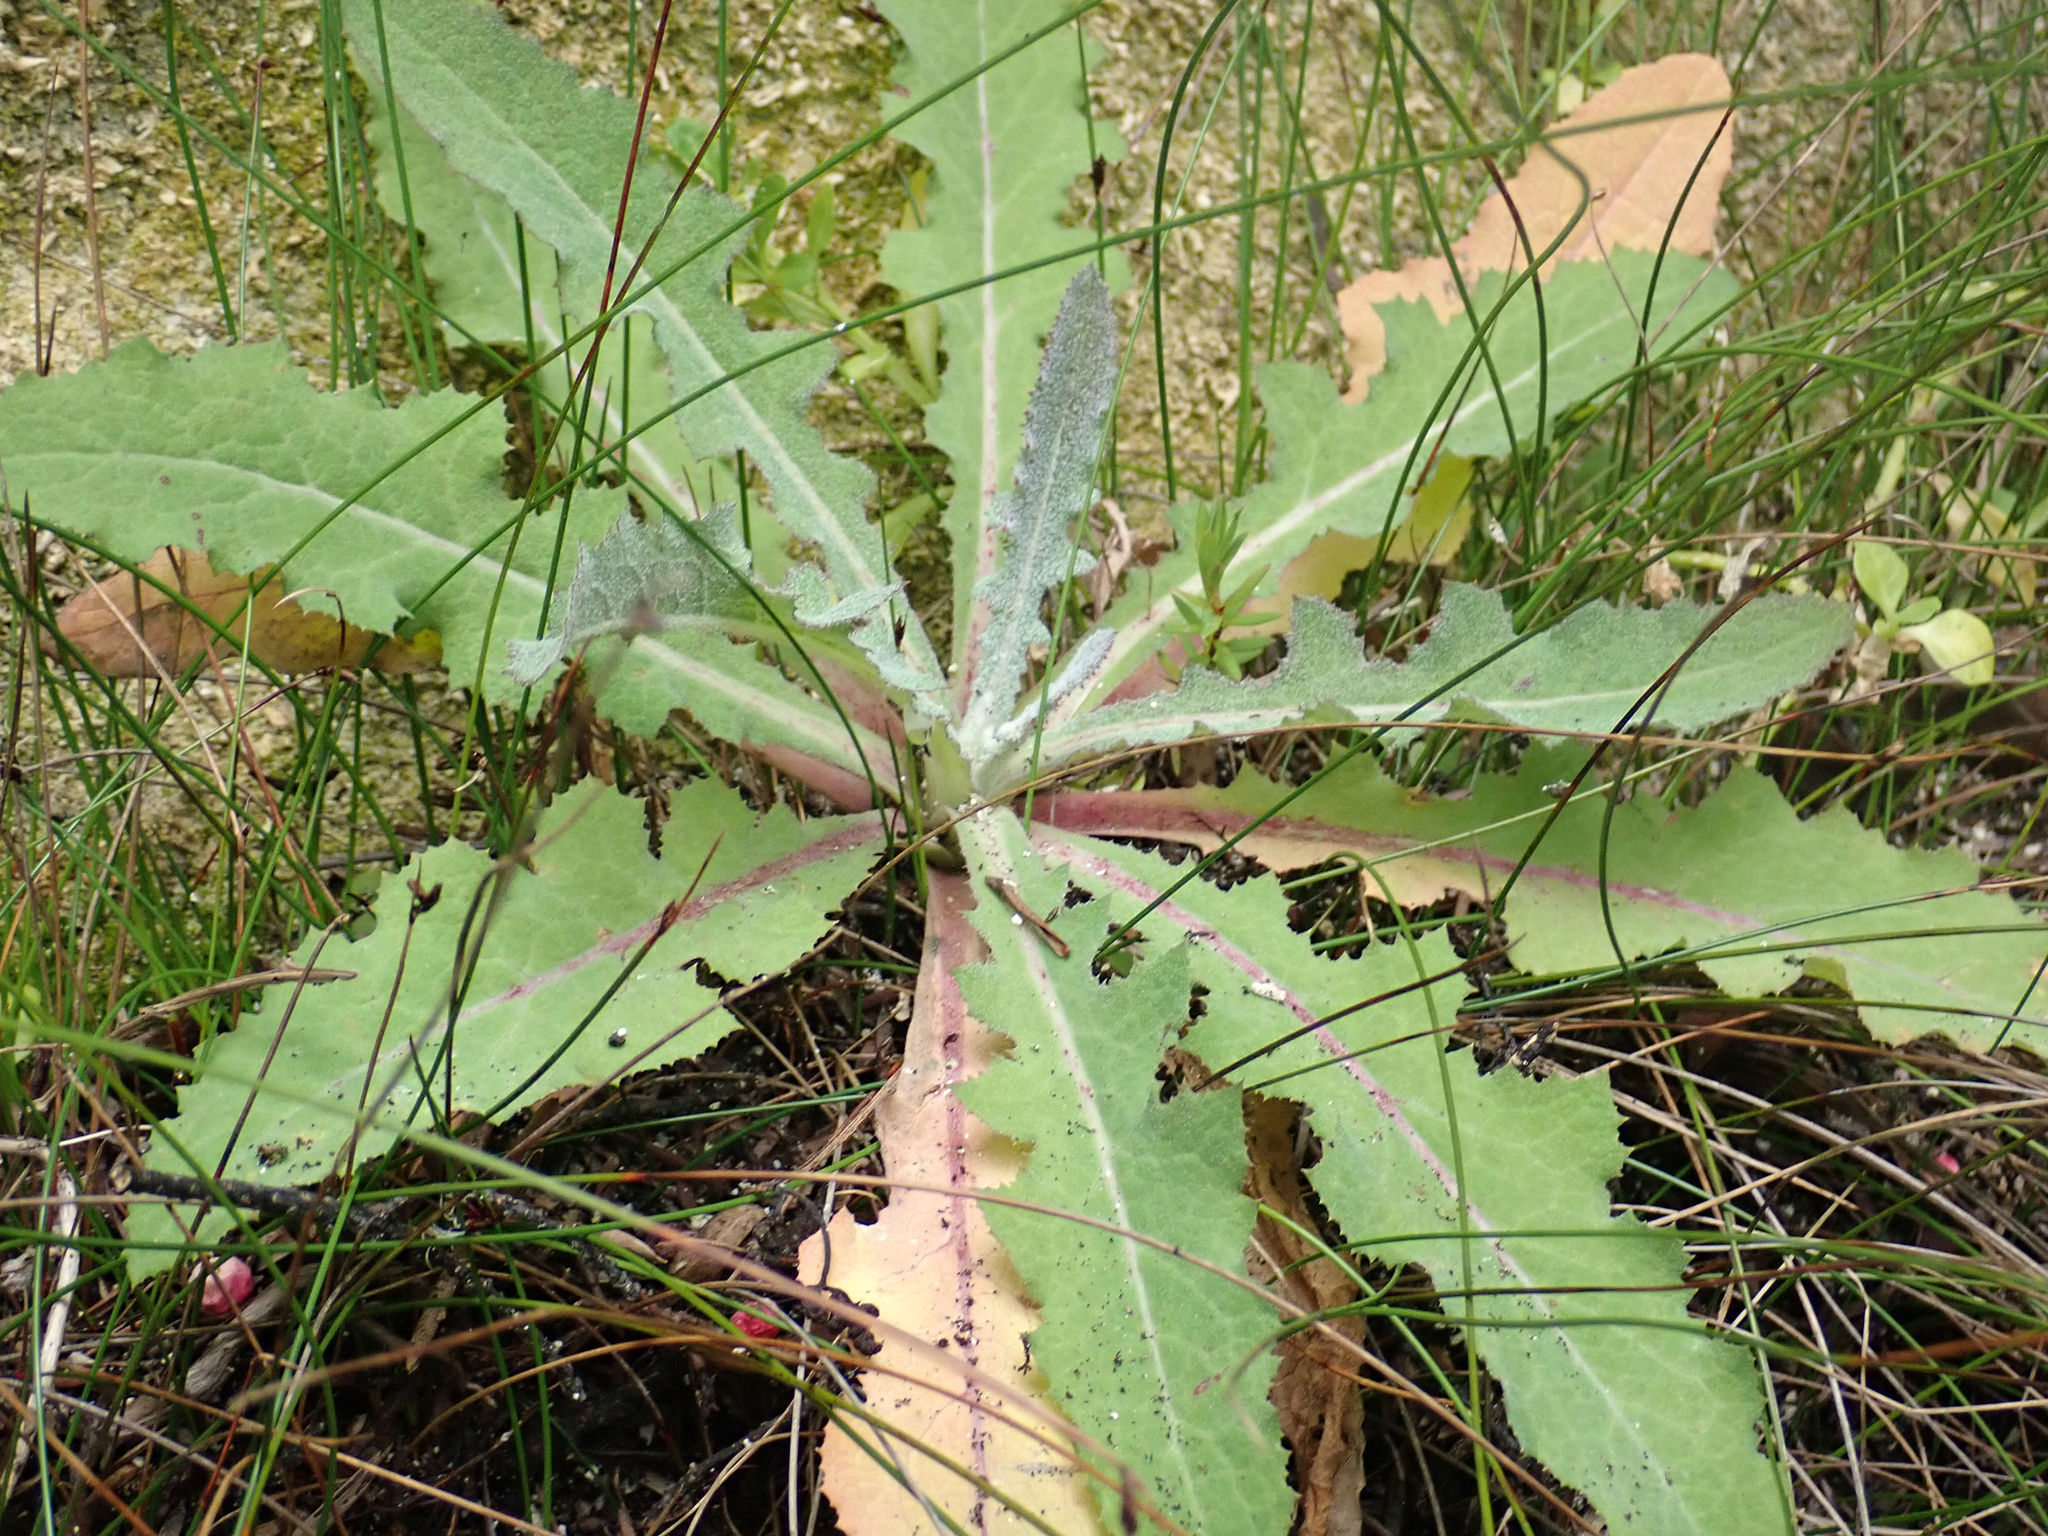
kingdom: Plantae
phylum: Tracheophyta
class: Magnoliopsida
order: Asterales
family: Asteraceae
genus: Sonchus
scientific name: Sonchus kirkii
